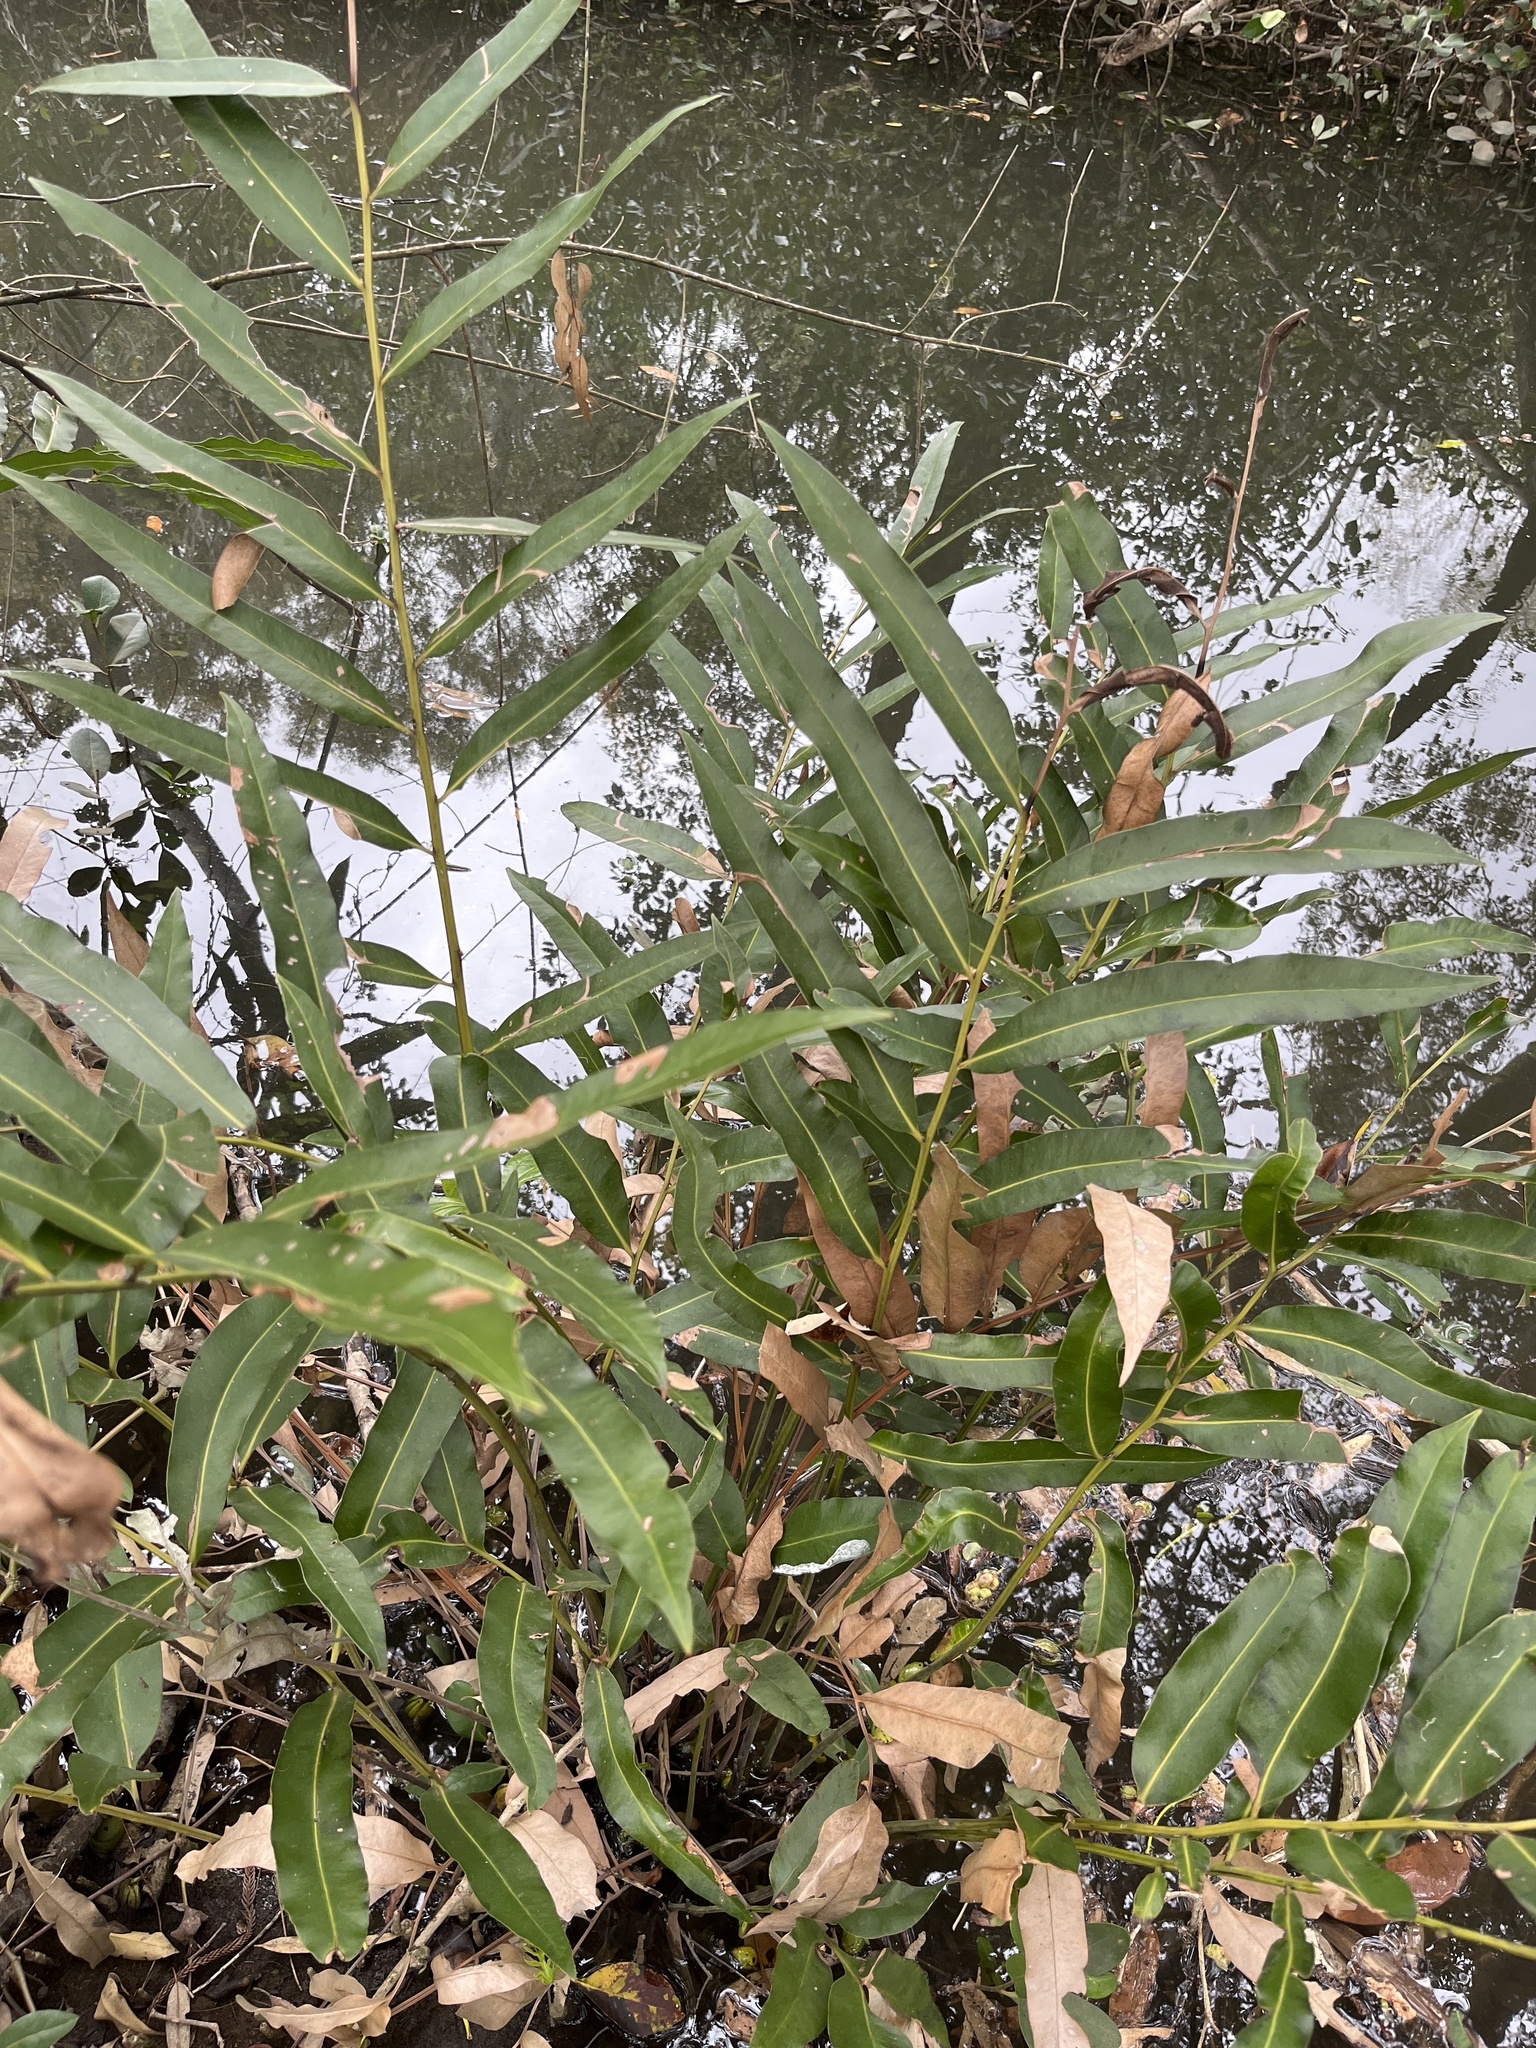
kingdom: Plantae
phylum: Tracheophyta
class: Polypodiopsida
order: Polypodiales
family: Pteridaceae
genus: Acrostichum
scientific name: Acrostichum speciosum
